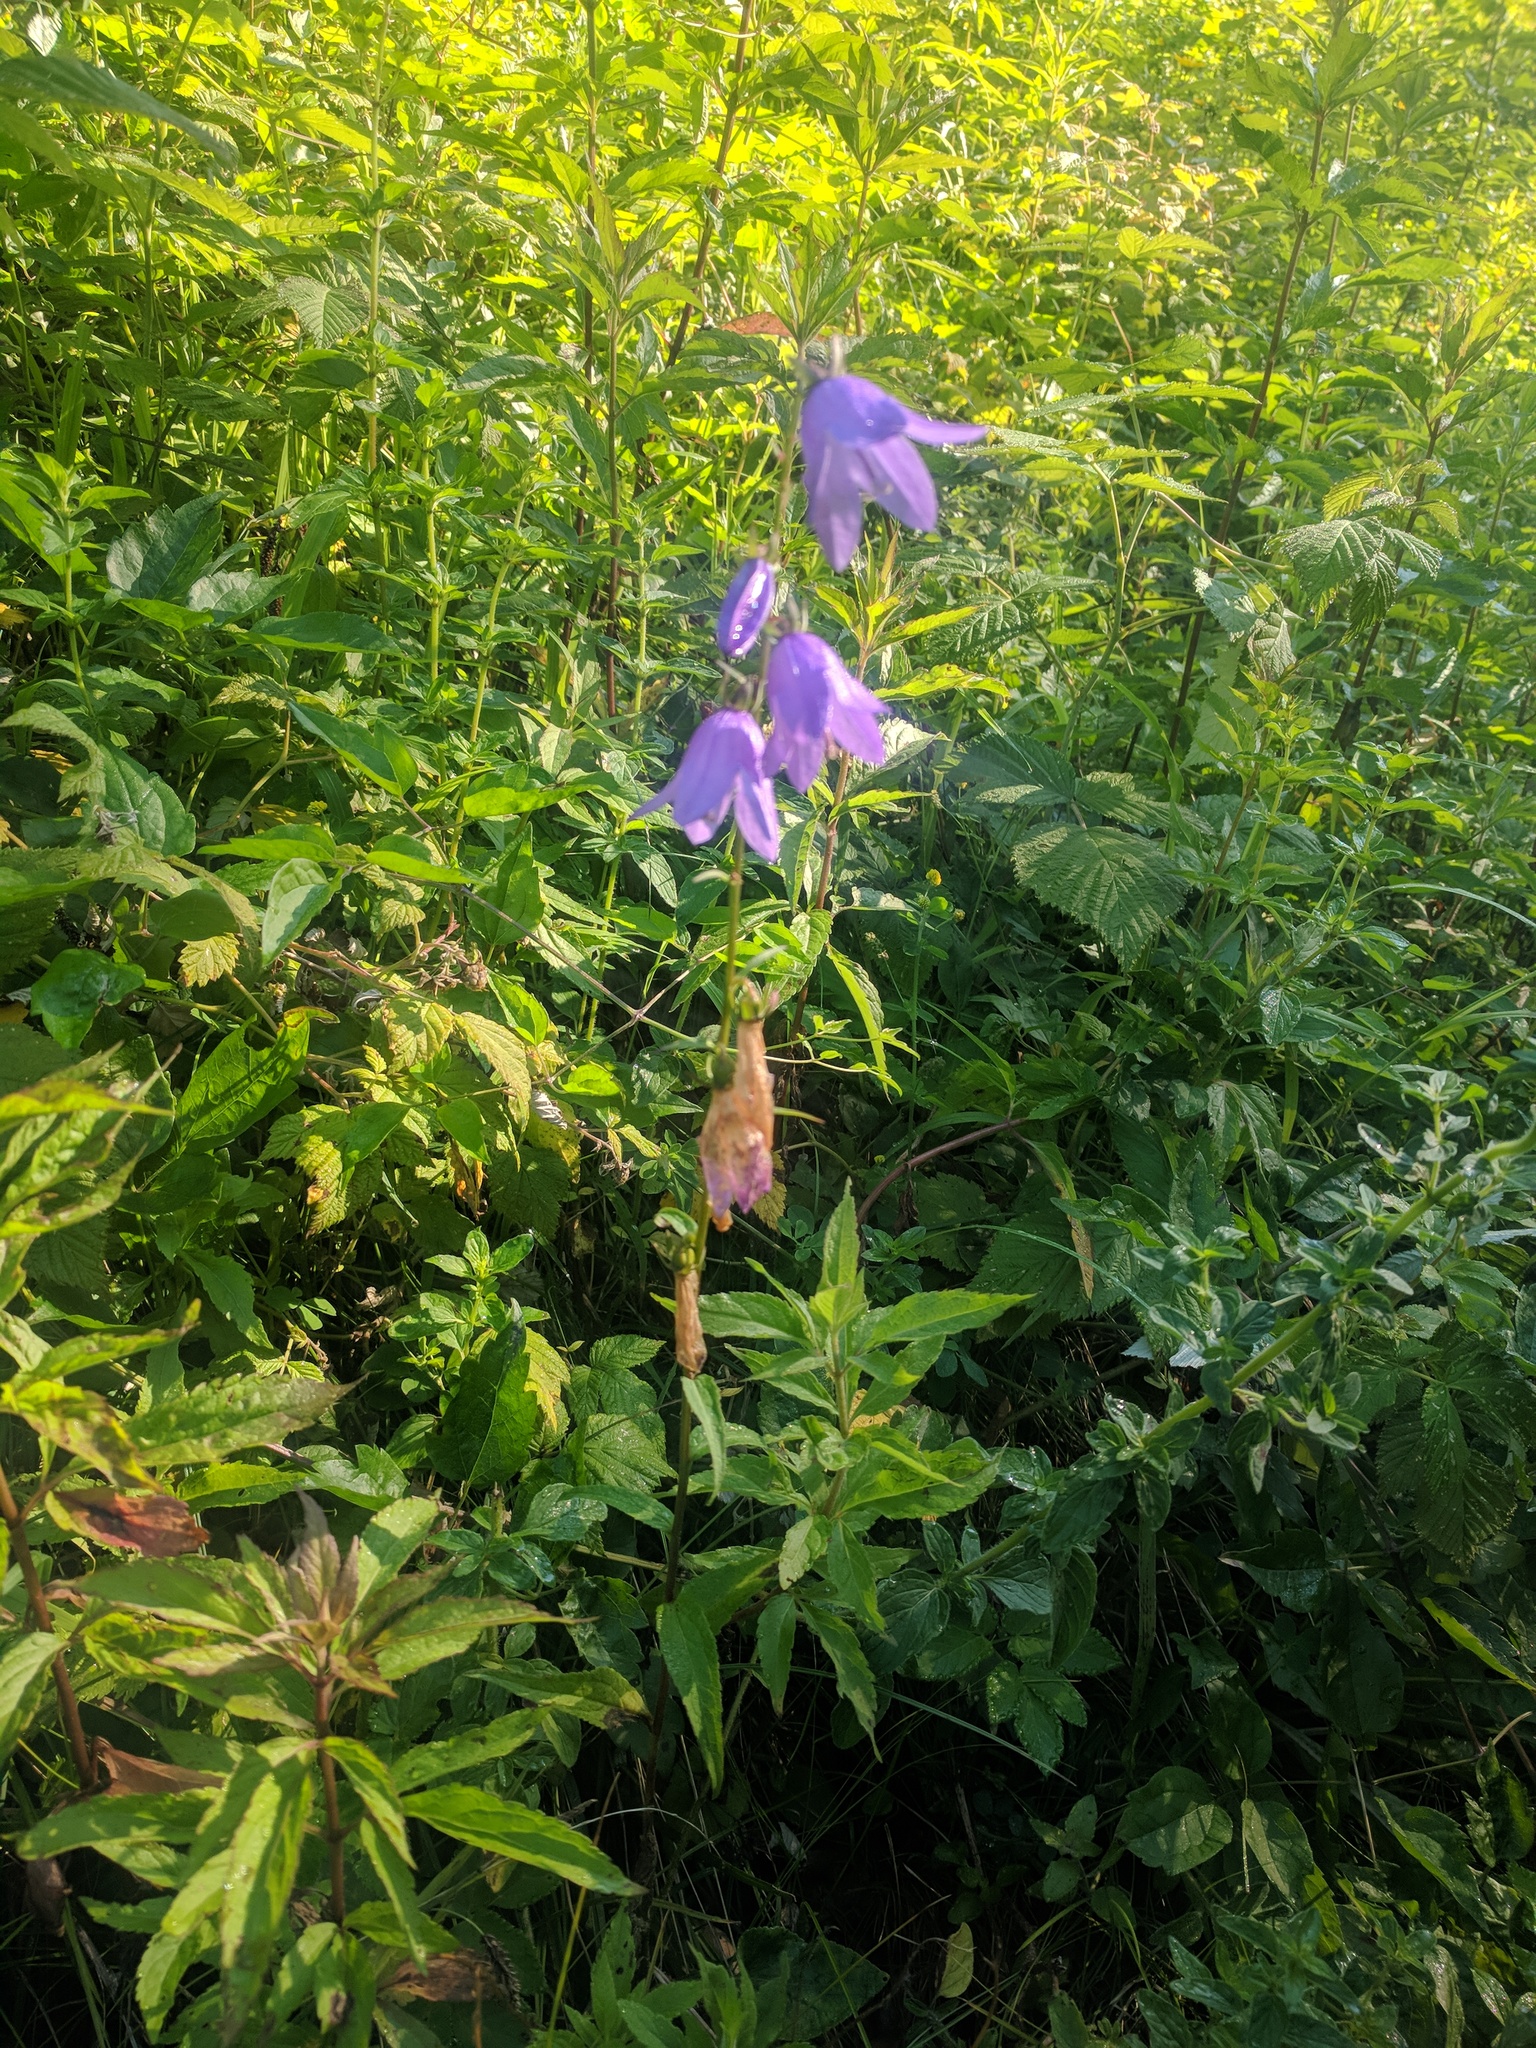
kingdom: Plantae
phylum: Tracheophyta
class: Magnoliopsida
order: Asterales
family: Campanulaceae
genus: Campanula
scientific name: Campanula rapunculoides
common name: Creeping bellflower
